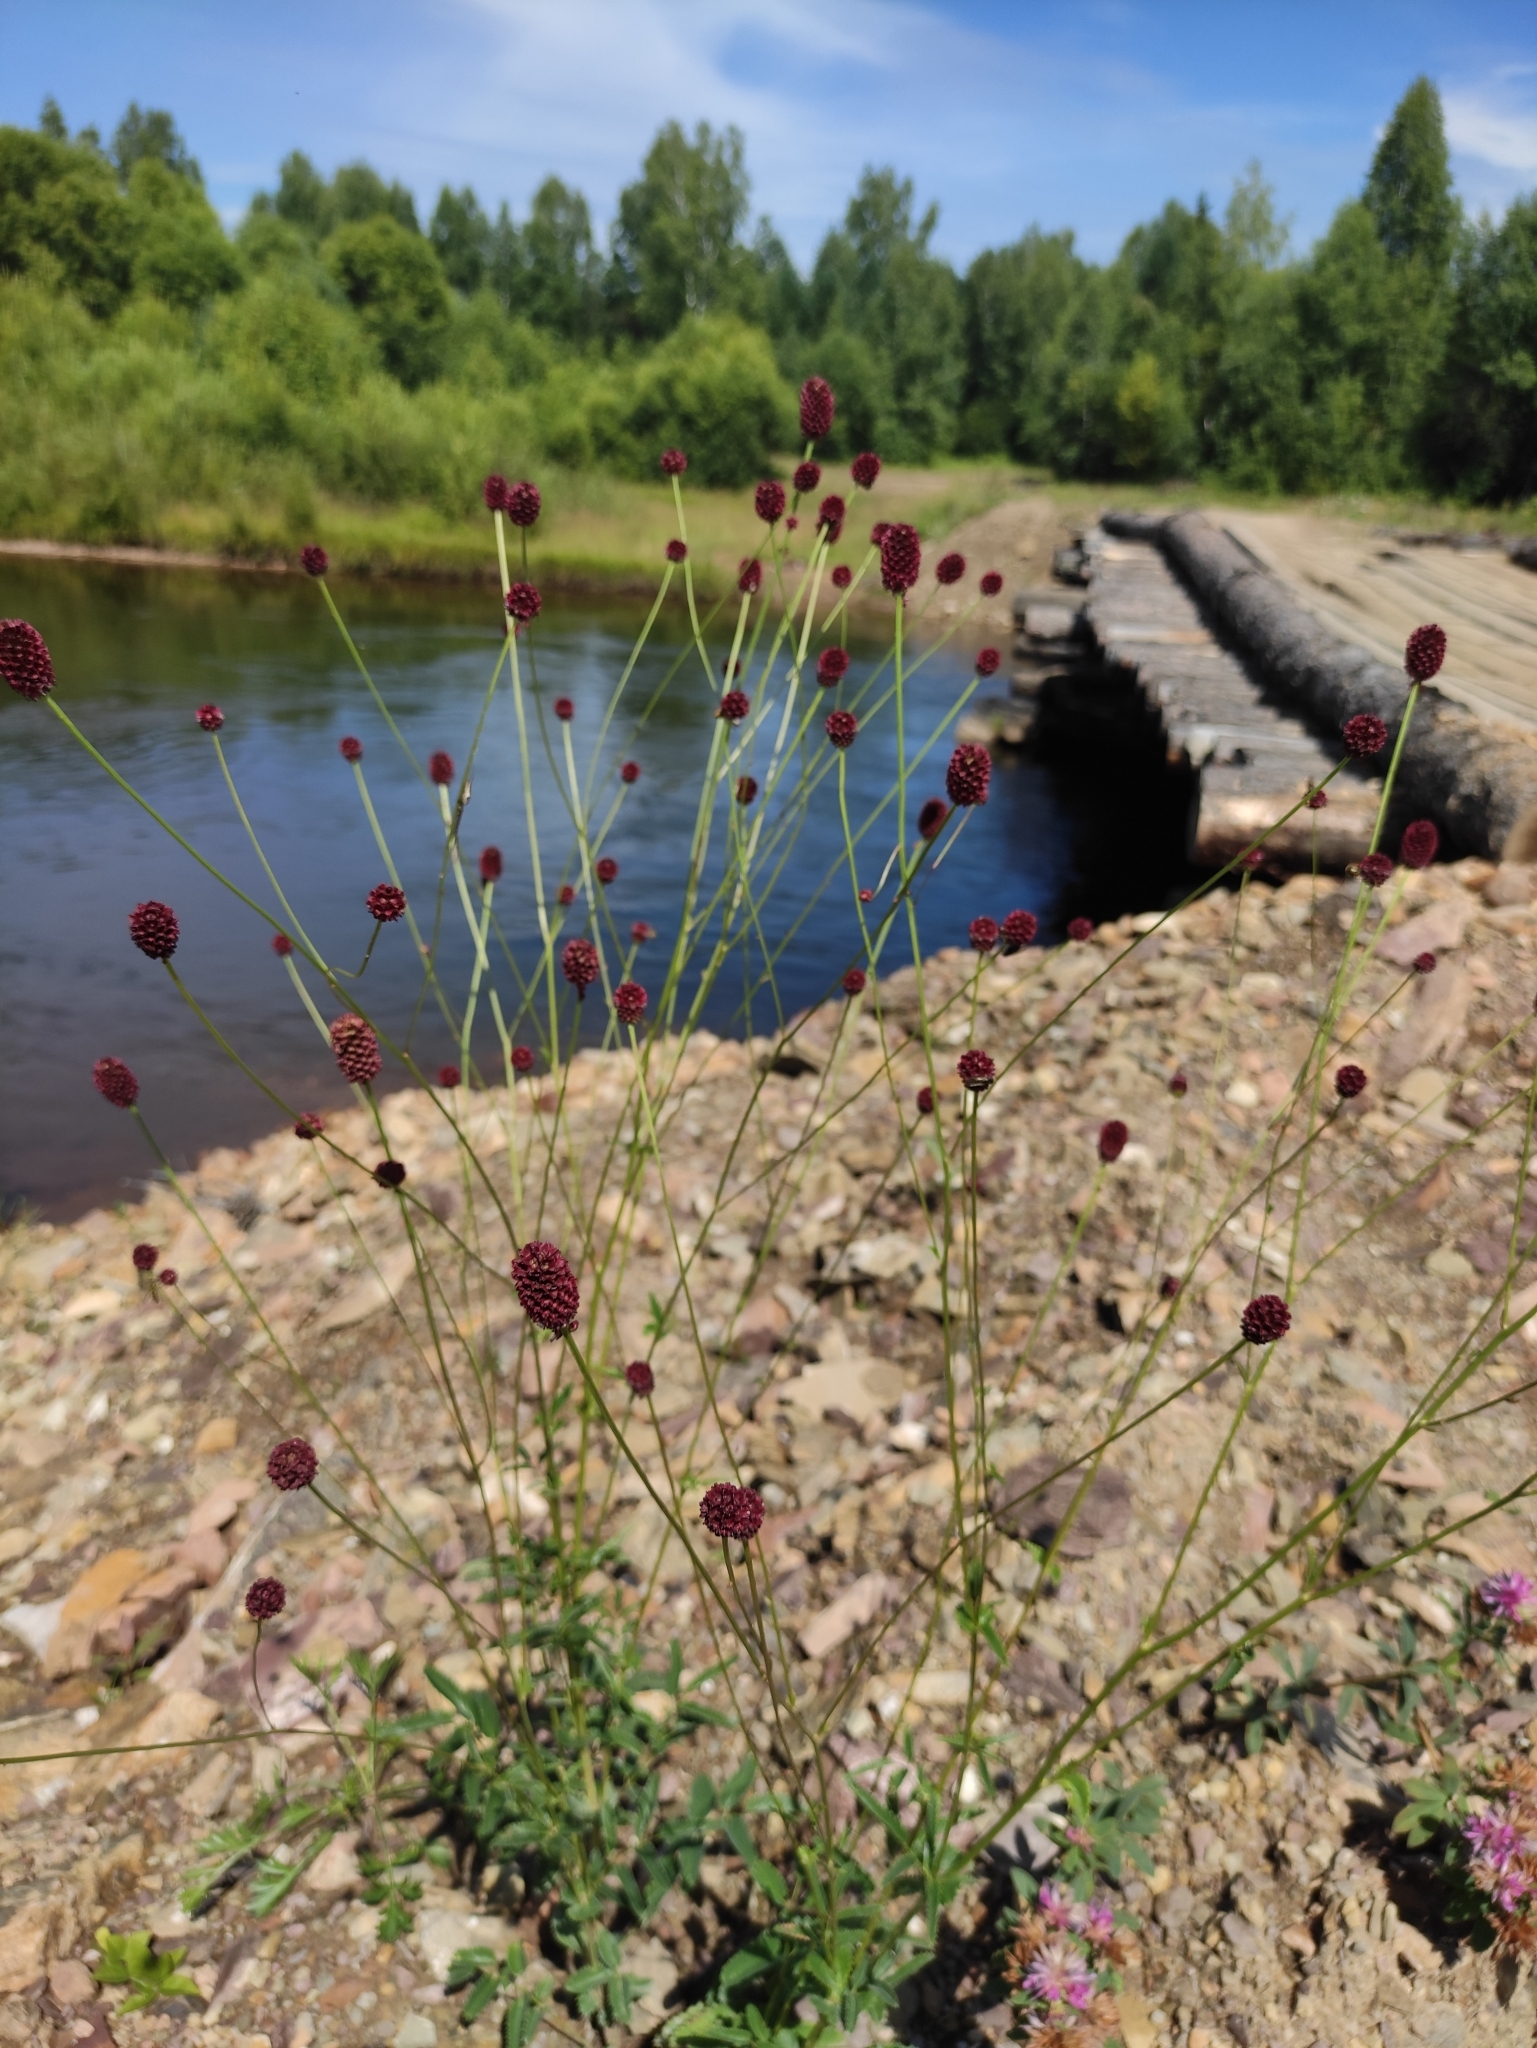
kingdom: Plantae
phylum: Tracheophyta
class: Magnoliopsida
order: Rosales
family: Rosaceae
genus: Sanguisorba
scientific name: Sanguisorba officinalis
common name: Great burnet
